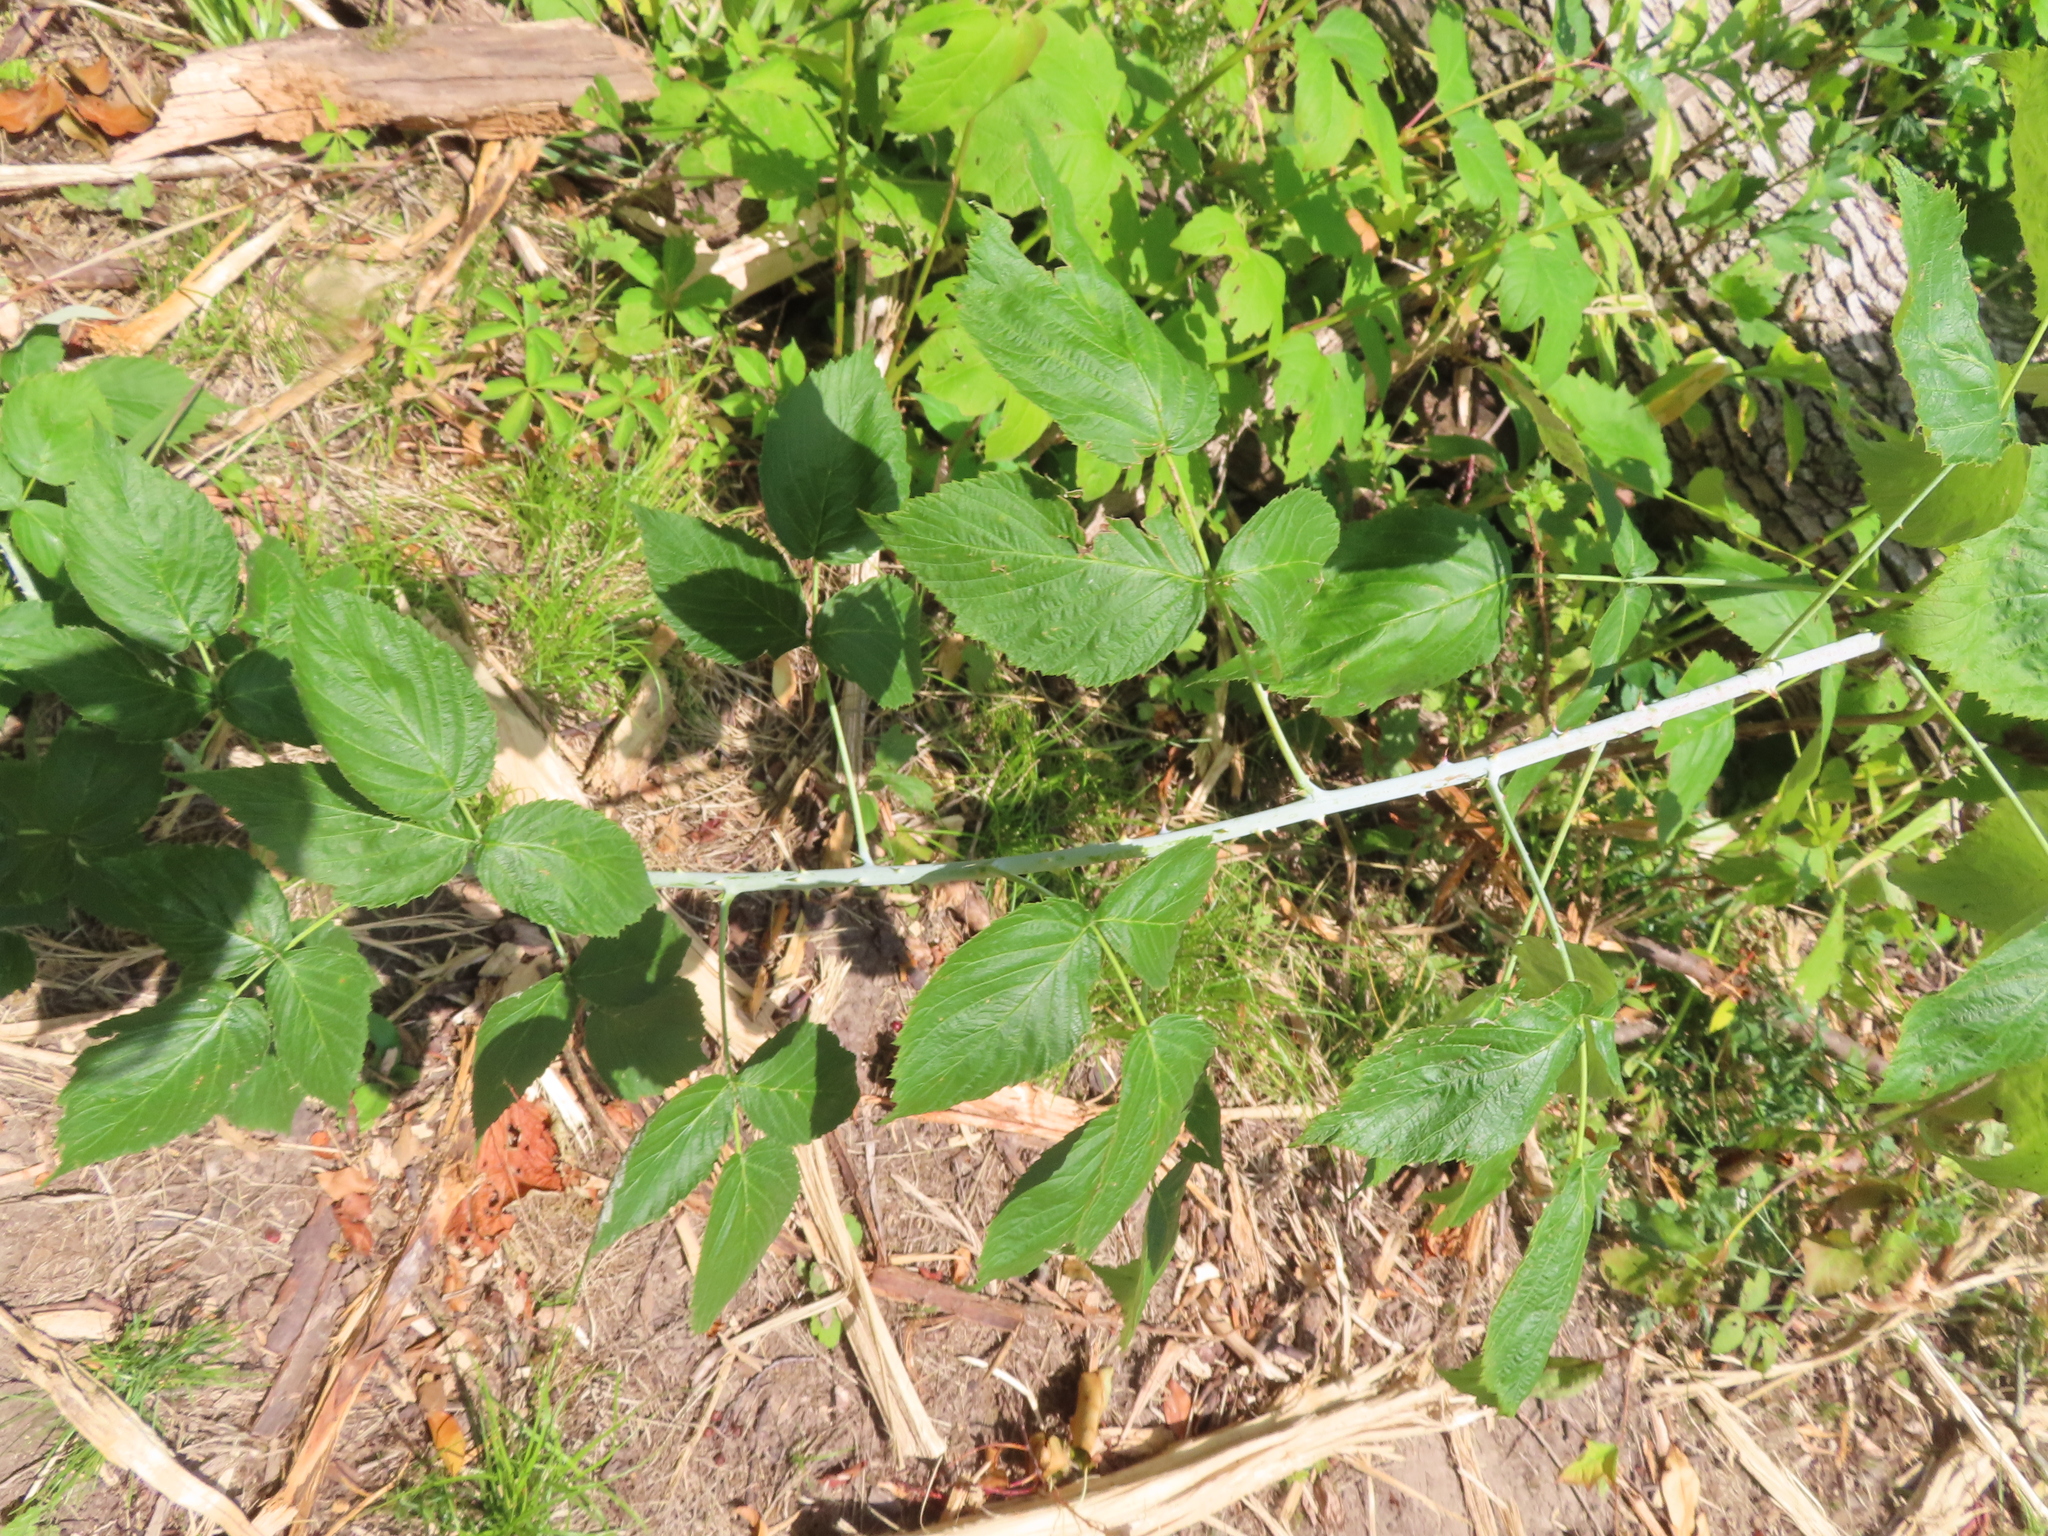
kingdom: Plantae
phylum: Tracheophyta
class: Magnoliopsida
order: Rosales
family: Rosaceae
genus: Rubus
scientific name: Rubus occidentalis
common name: Black raspberry
